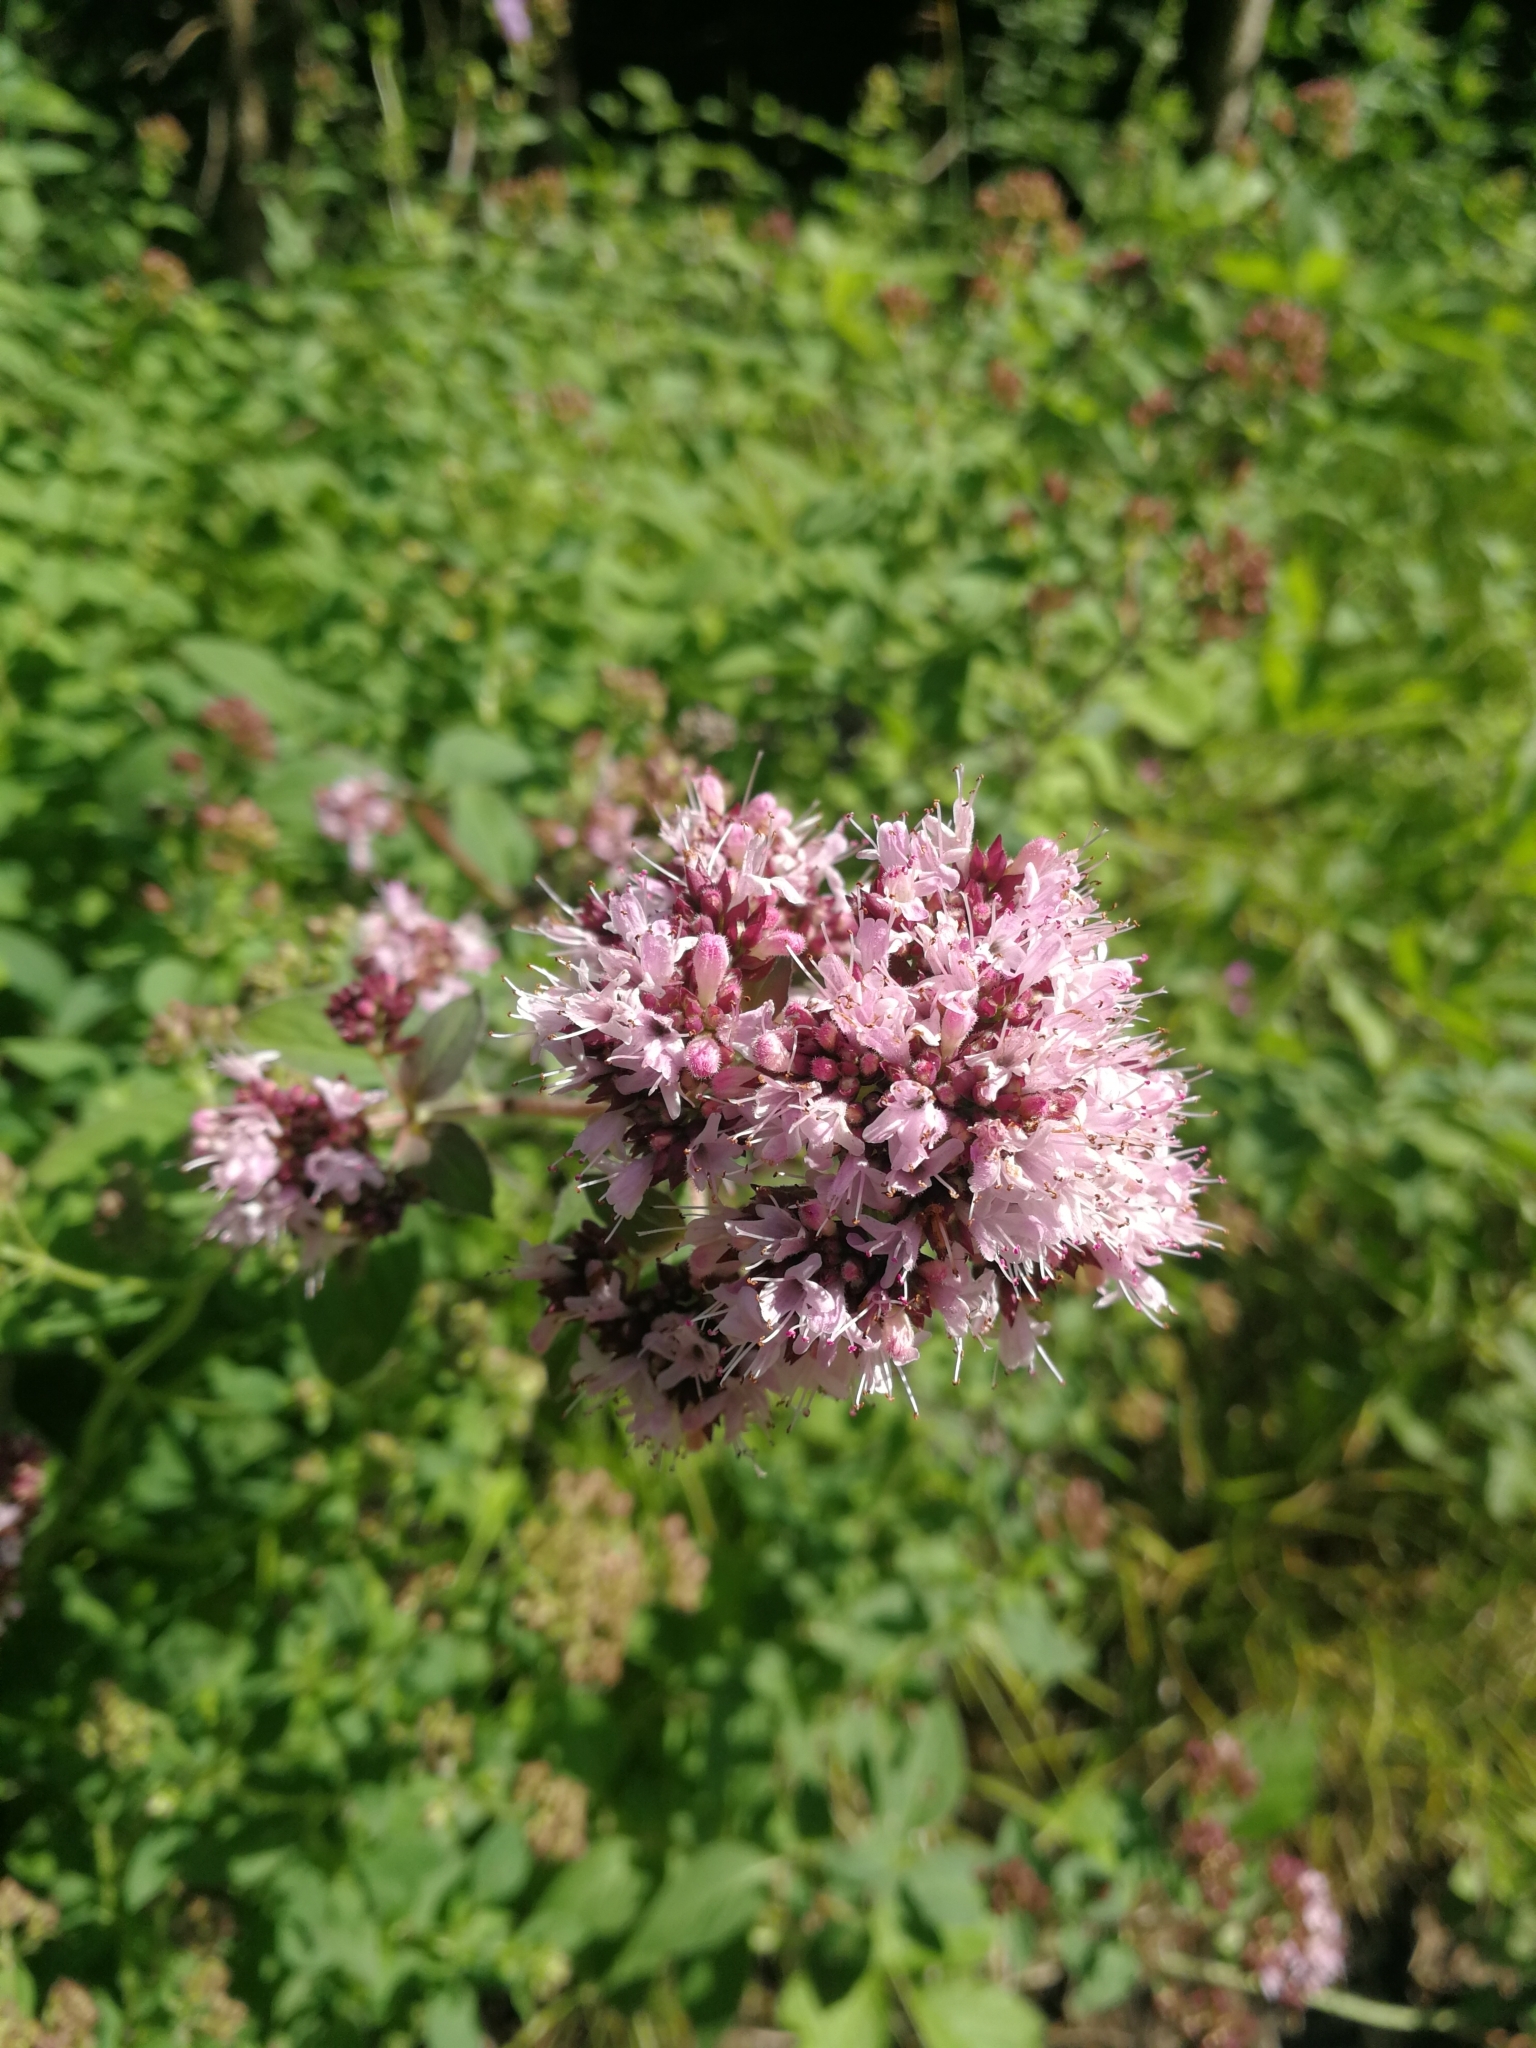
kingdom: Plantae
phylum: Tracheophyta
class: Magnoliopsida
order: Lamiales
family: Lamiaceae
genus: Origanum
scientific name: Origanum vulgare
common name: Wild marjoram
